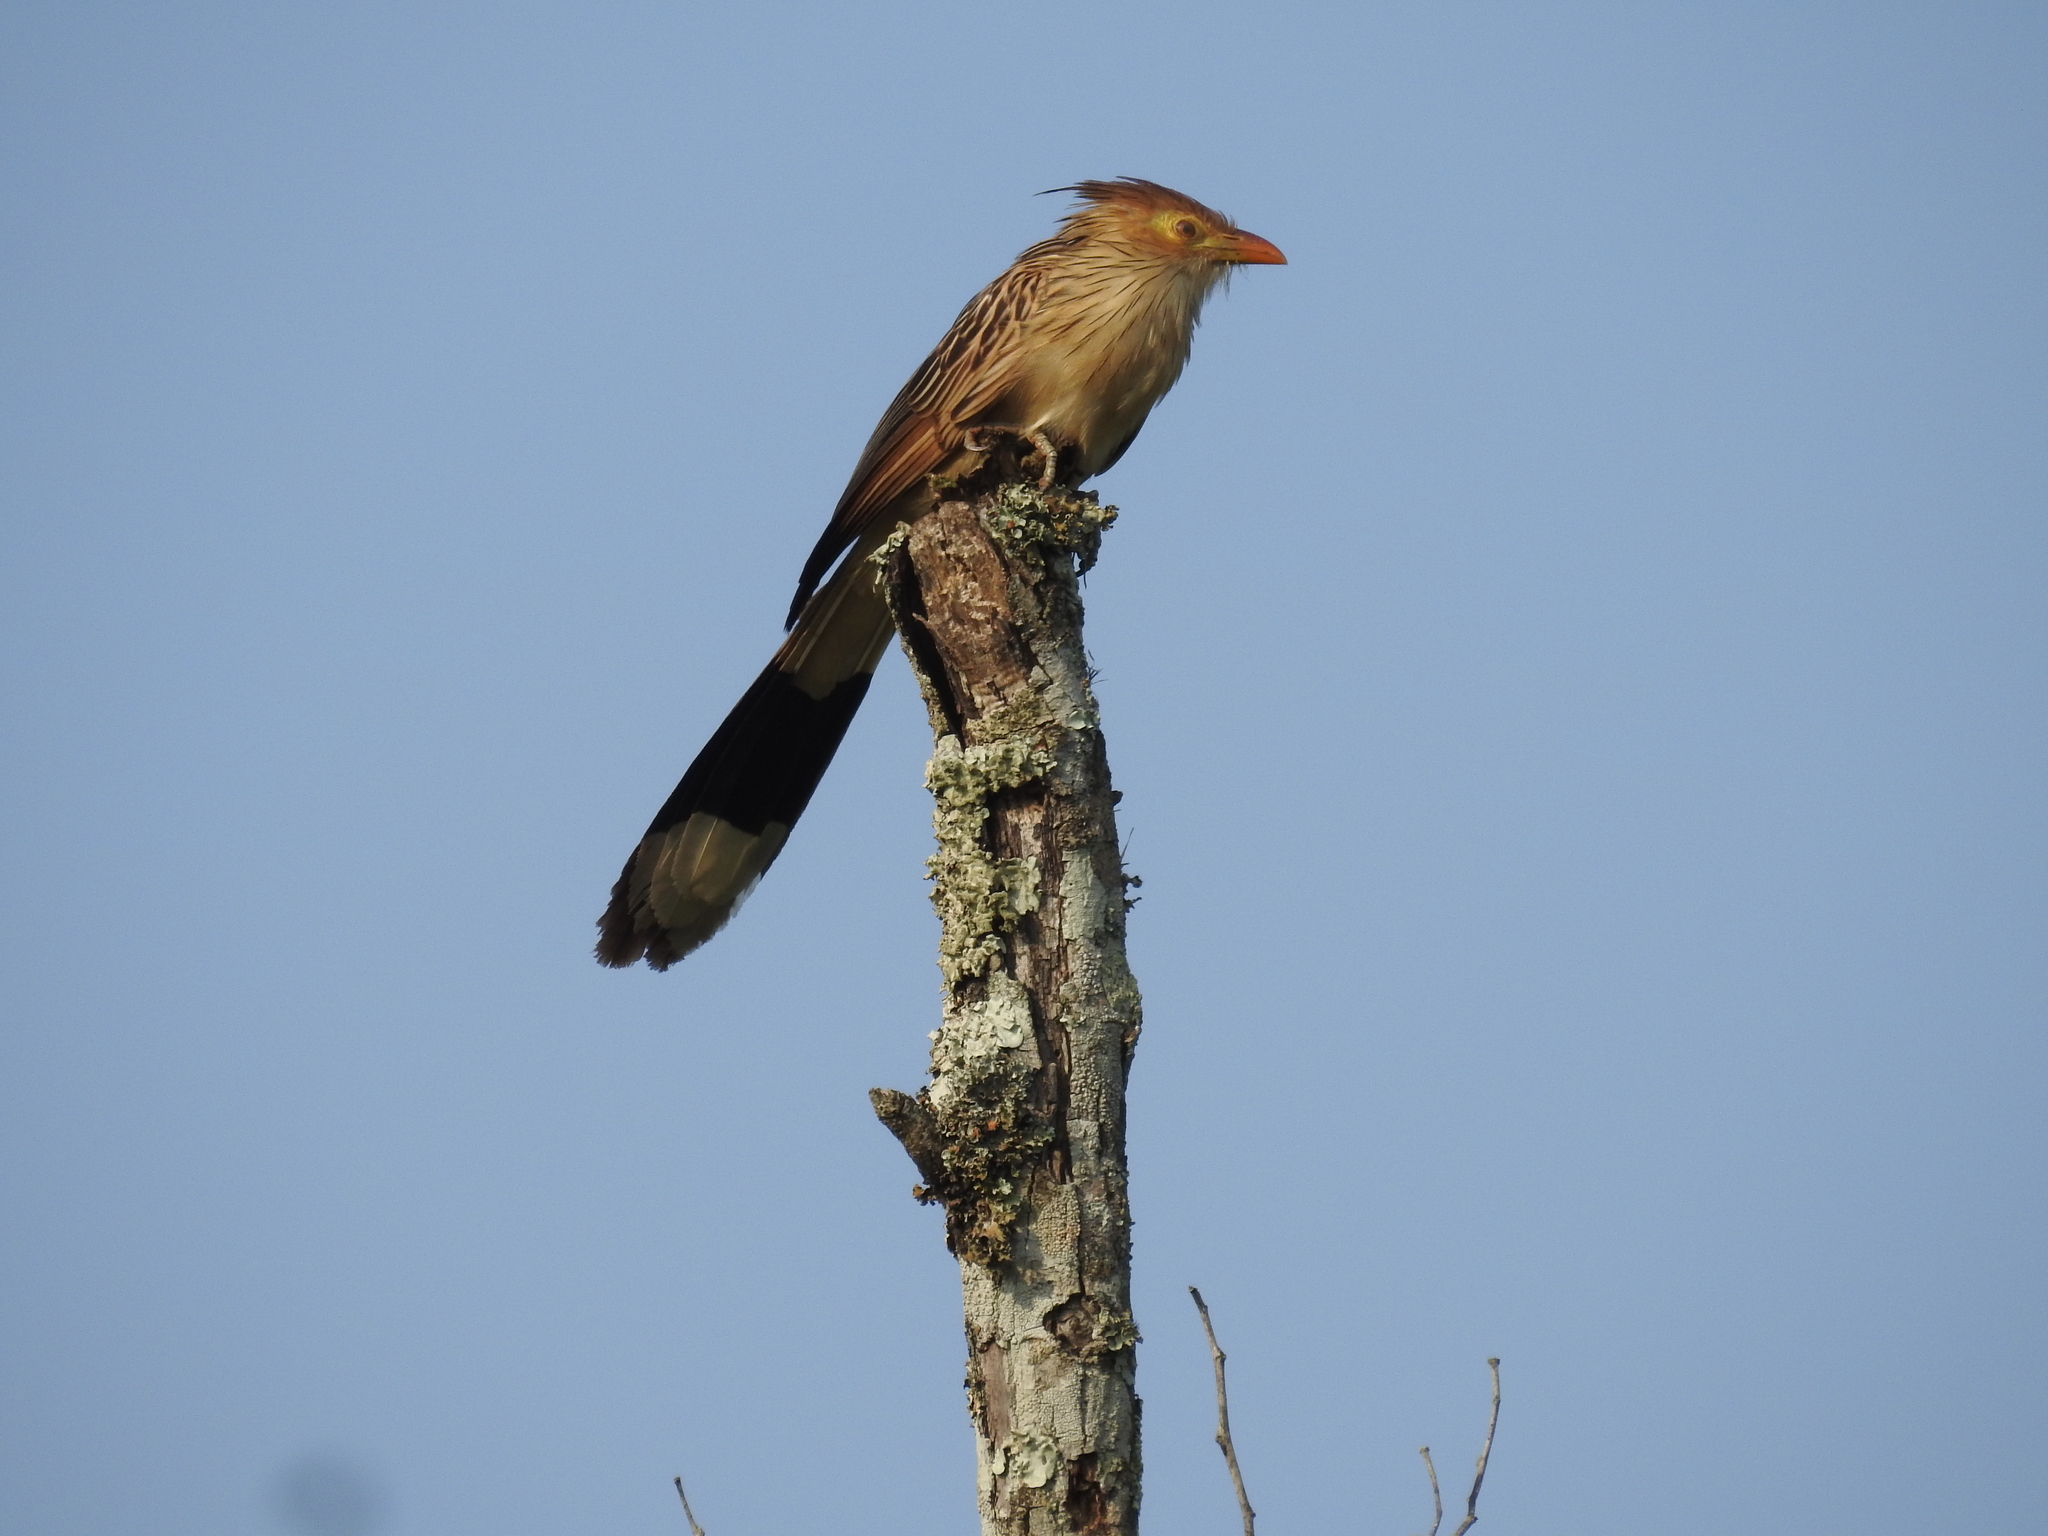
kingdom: Animalia
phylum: Chordata
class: Aves
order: Cuculiformes
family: Cuculidae
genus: Guira
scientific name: Guira guira
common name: Guira cuckoo
